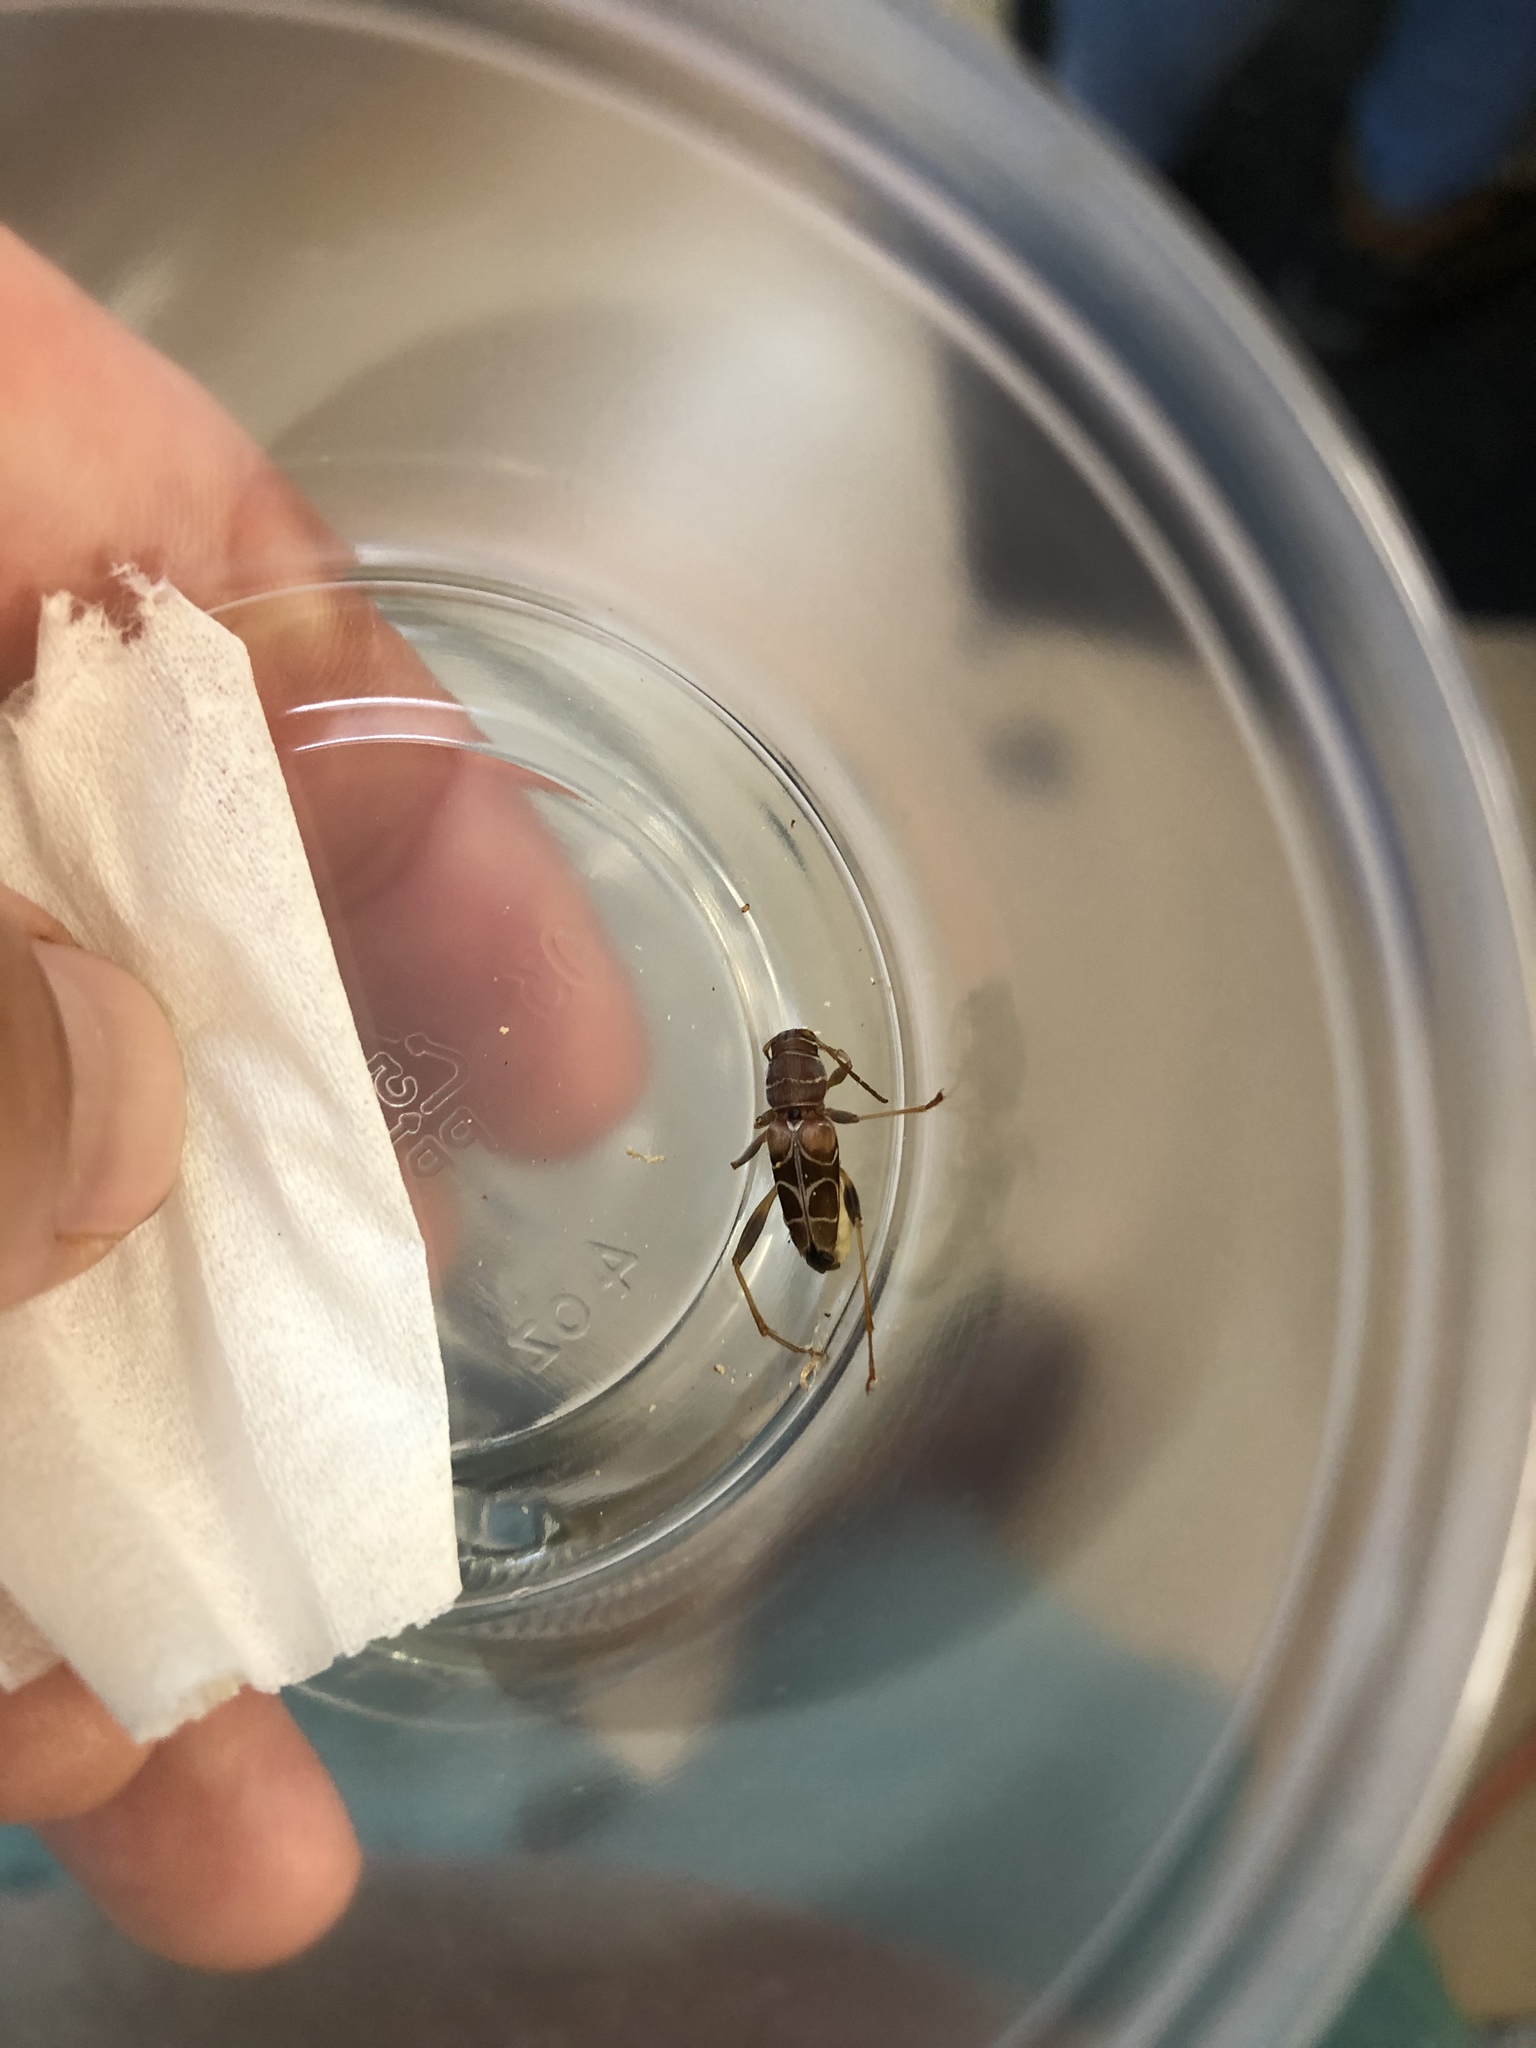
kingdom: Animalia
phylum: Arthropoda
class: Insecta
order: Coleoptera
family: Cerambycidae
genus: Neoclytus
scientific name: Neoclytus scutellaris
